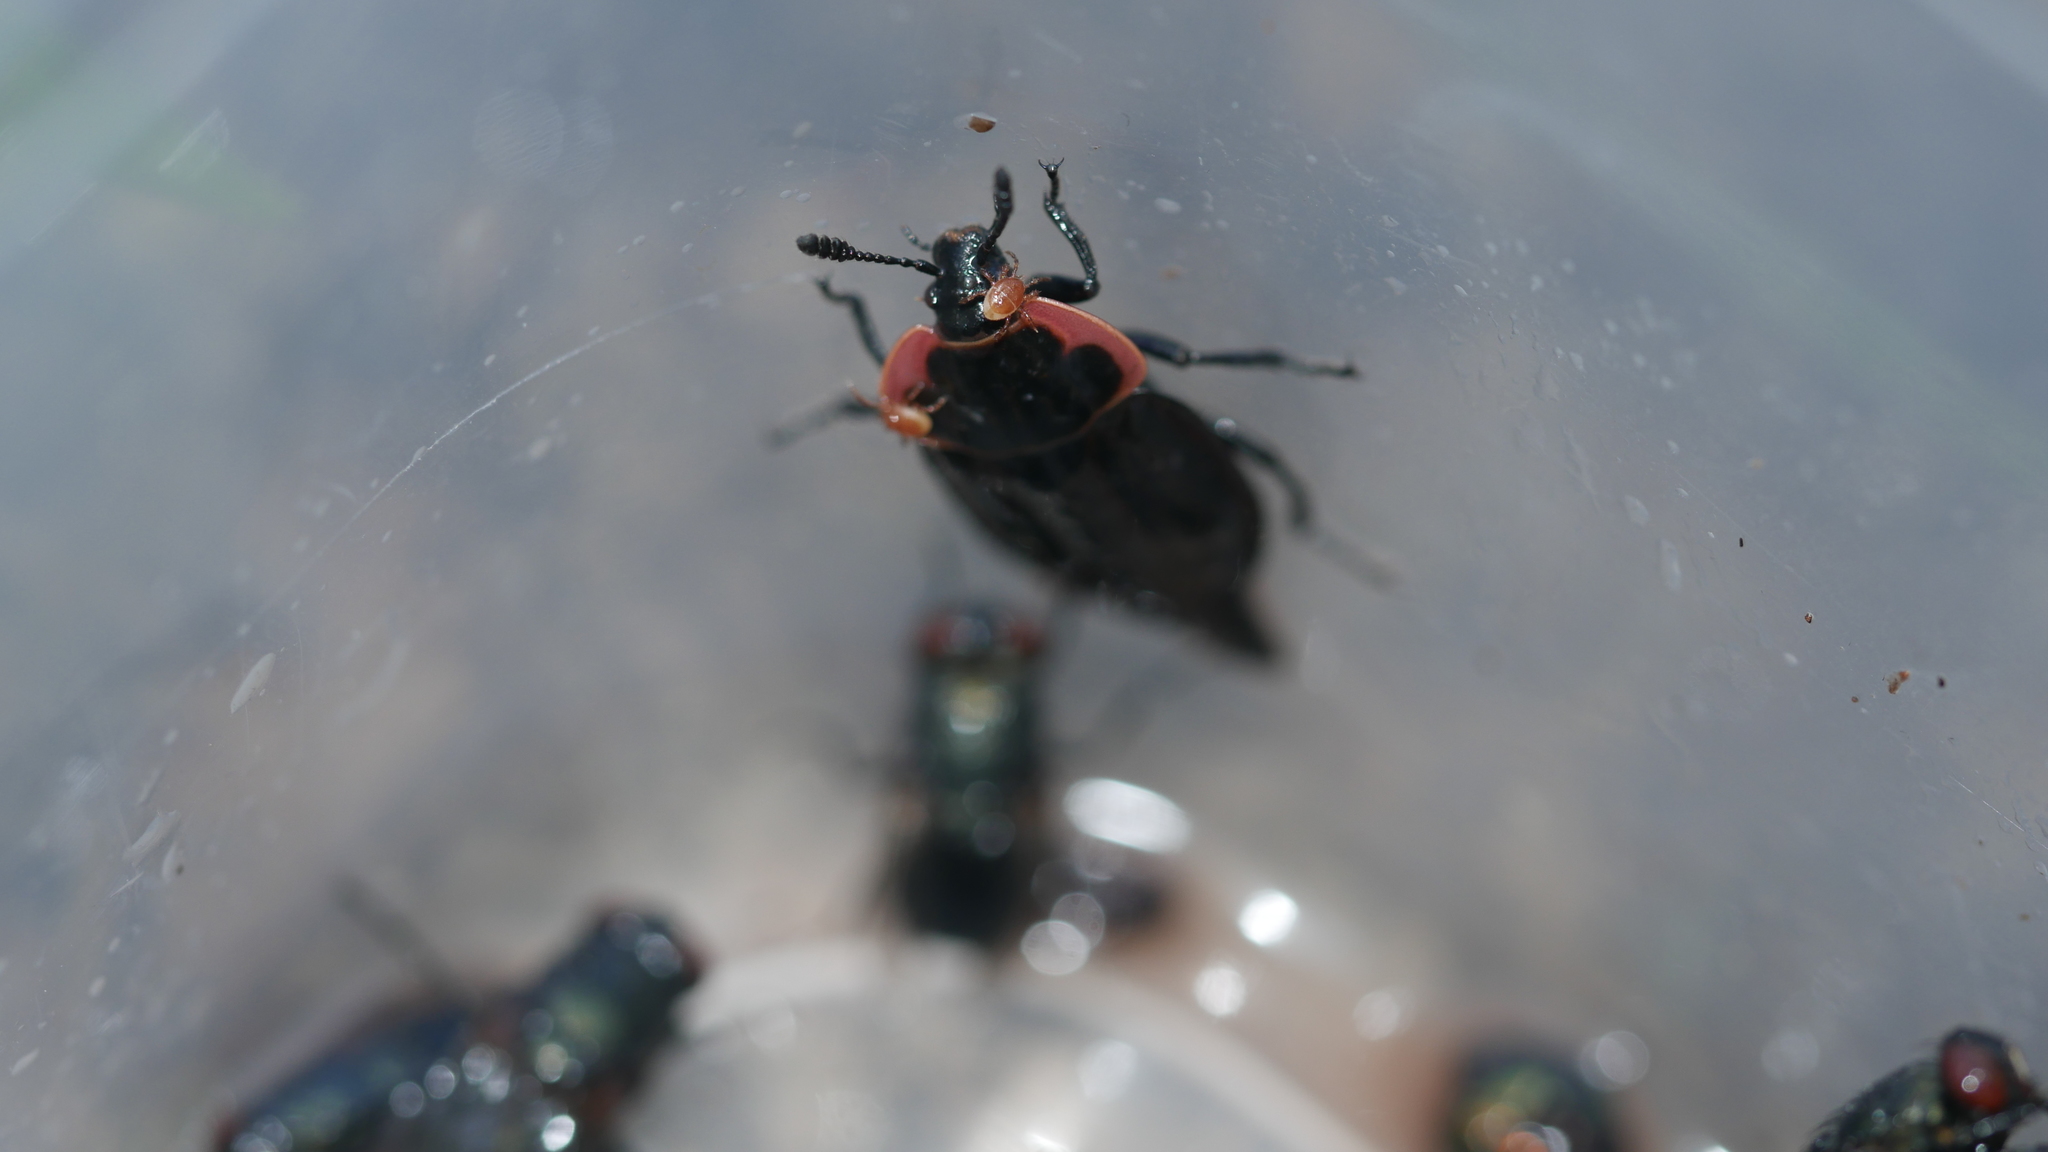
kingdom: Animalia
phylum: Arthropoda
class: Insecta
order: Coleoptera
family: Staphylinidae
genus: Oiceoptoma
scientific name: Oiceoptoma noveboracense
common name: Margined carrion beetle
